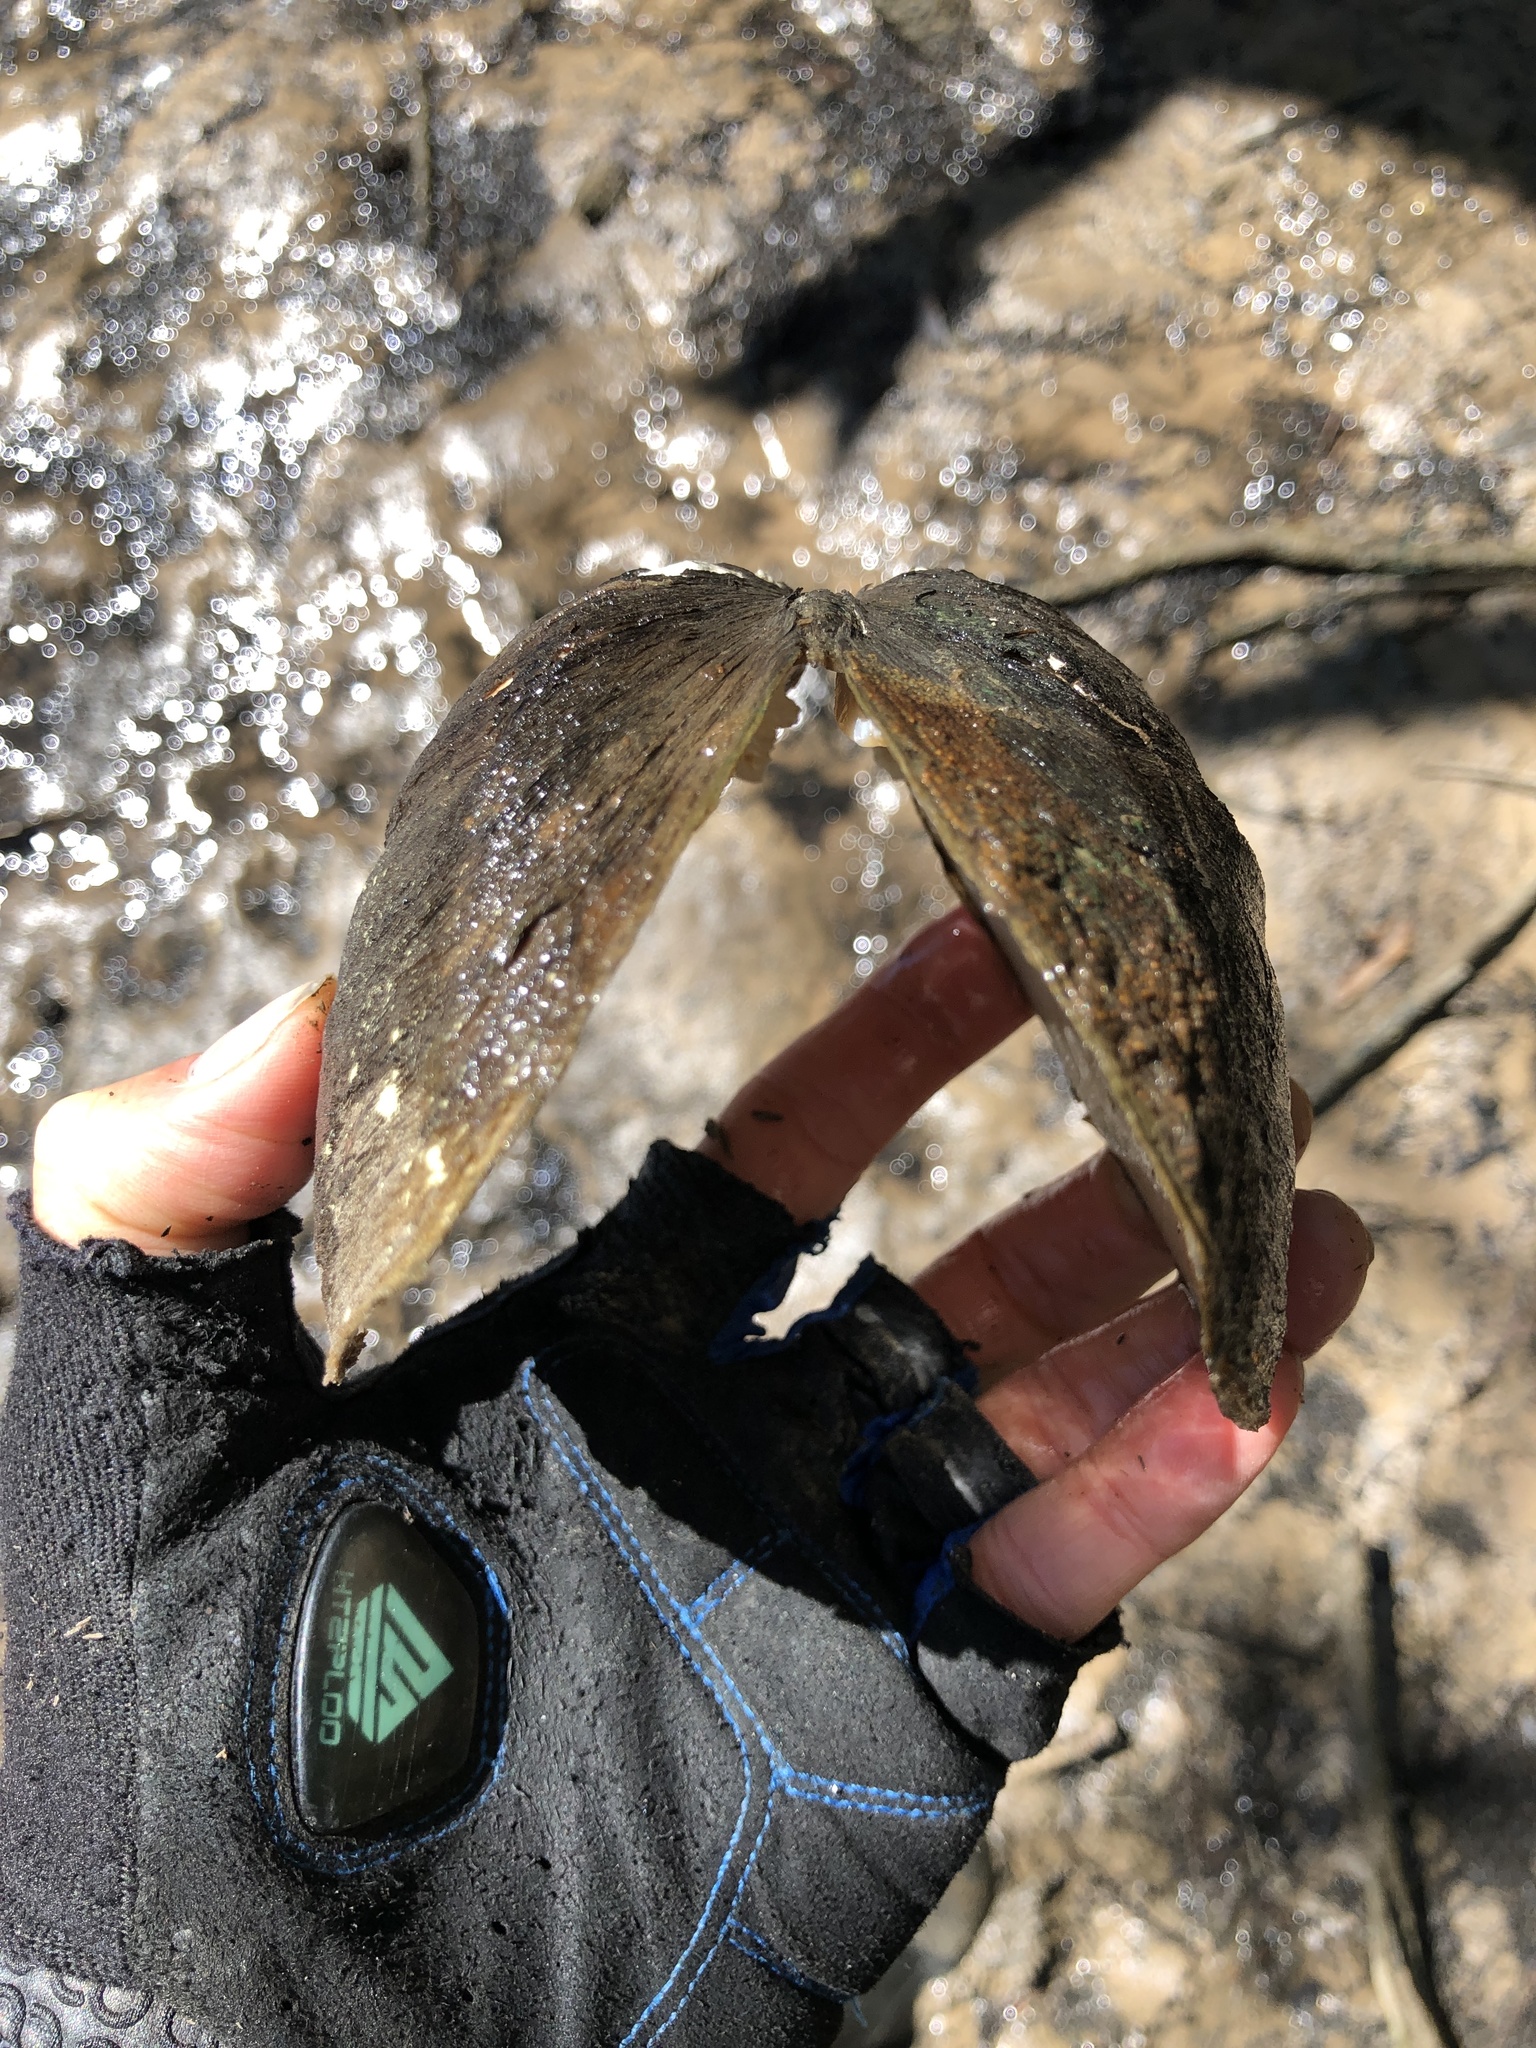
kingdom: Animalia
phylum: Mollusca
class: Bivalvia
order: Unionida
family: Unionidae
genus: Glebula
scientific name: Glebula rotundata
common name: Round pearlshell
